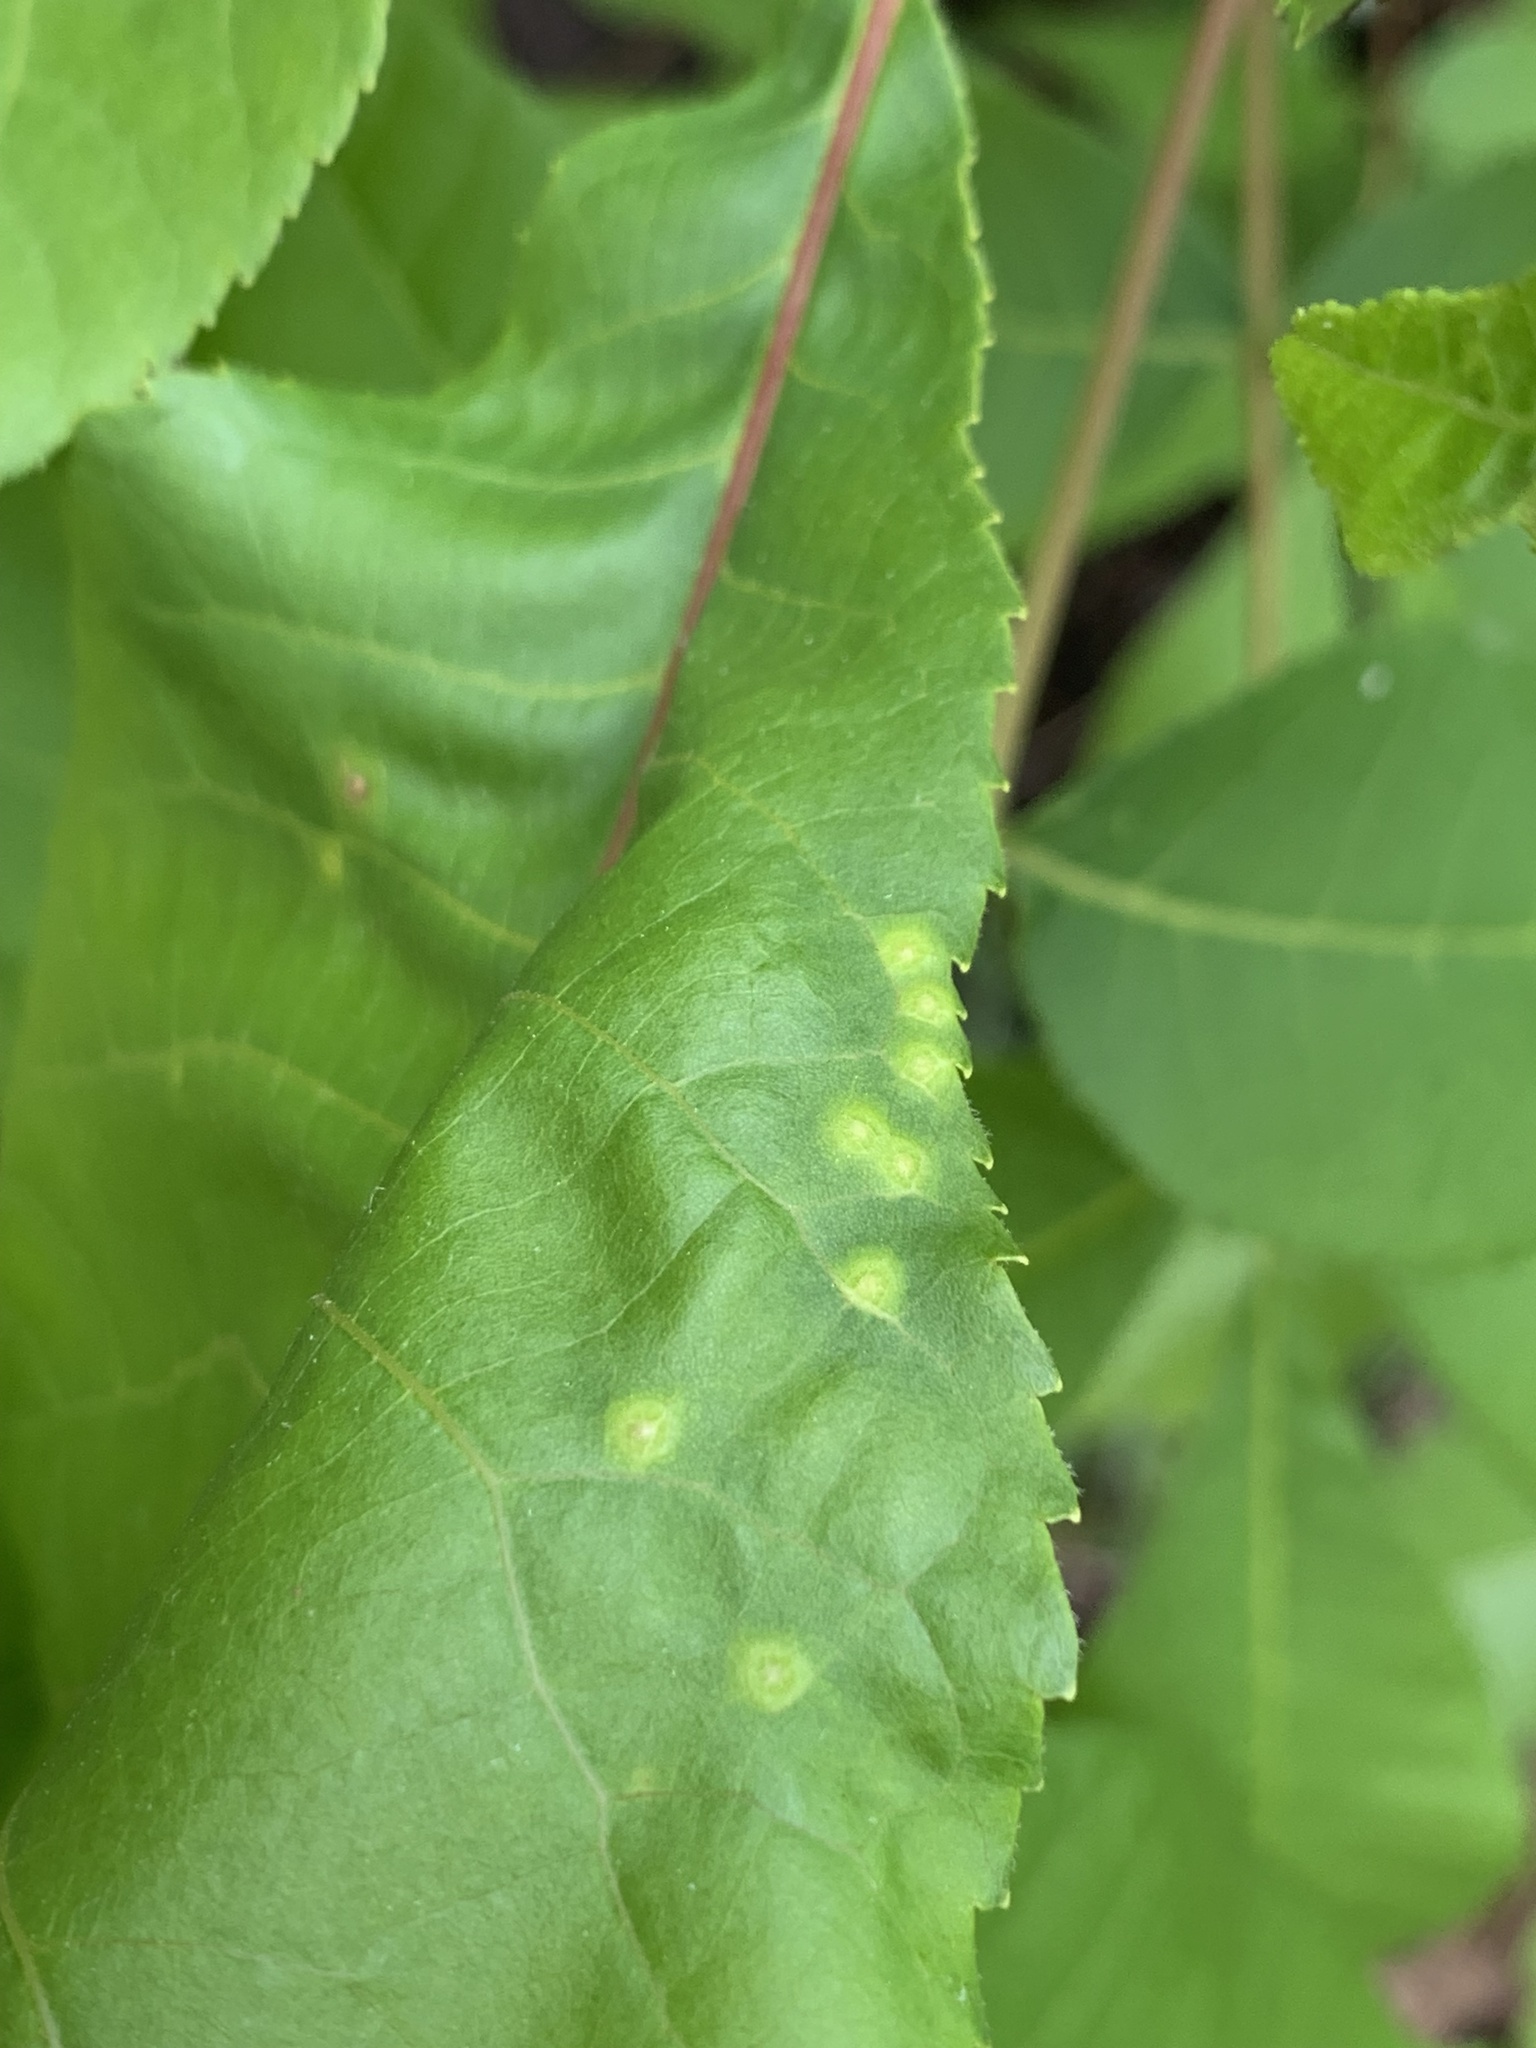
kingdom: Animalia
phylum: Arthropoda
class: Insecta
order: Diptera
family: Cecidomyiidae
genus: Caryomyia
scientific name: Caryomyia striolata
